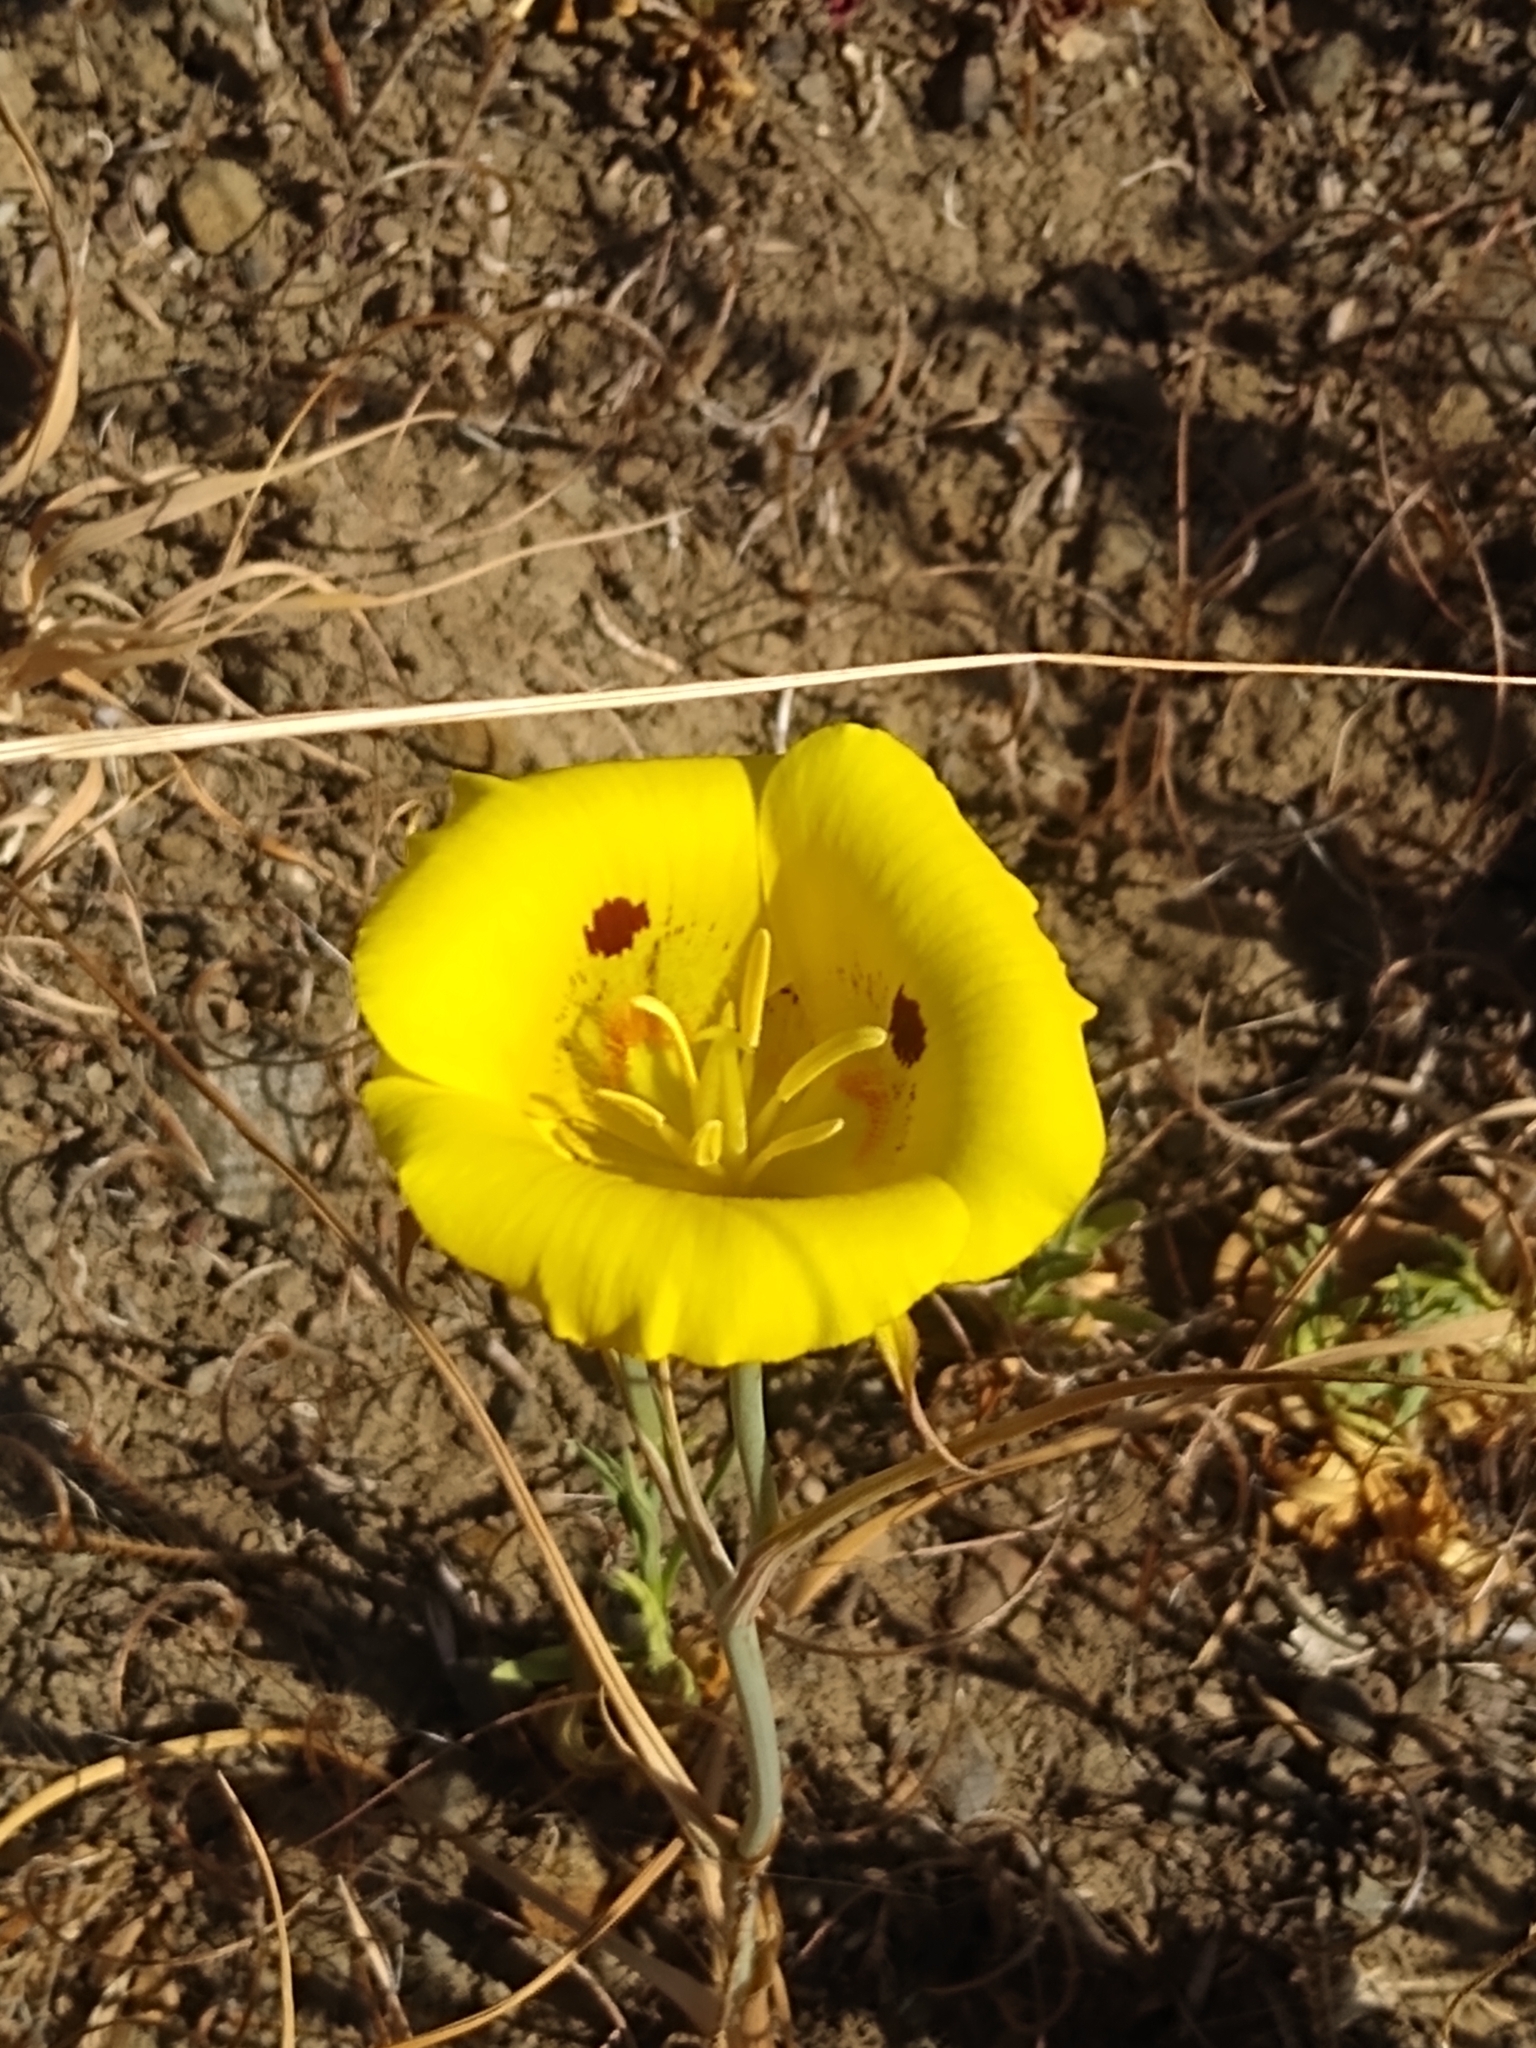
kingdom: Plantae
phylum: Tracheophyta
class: Liliopsida
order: Liliales
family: Liliaceae
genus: Calochortus
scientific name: Calochortus luteus
